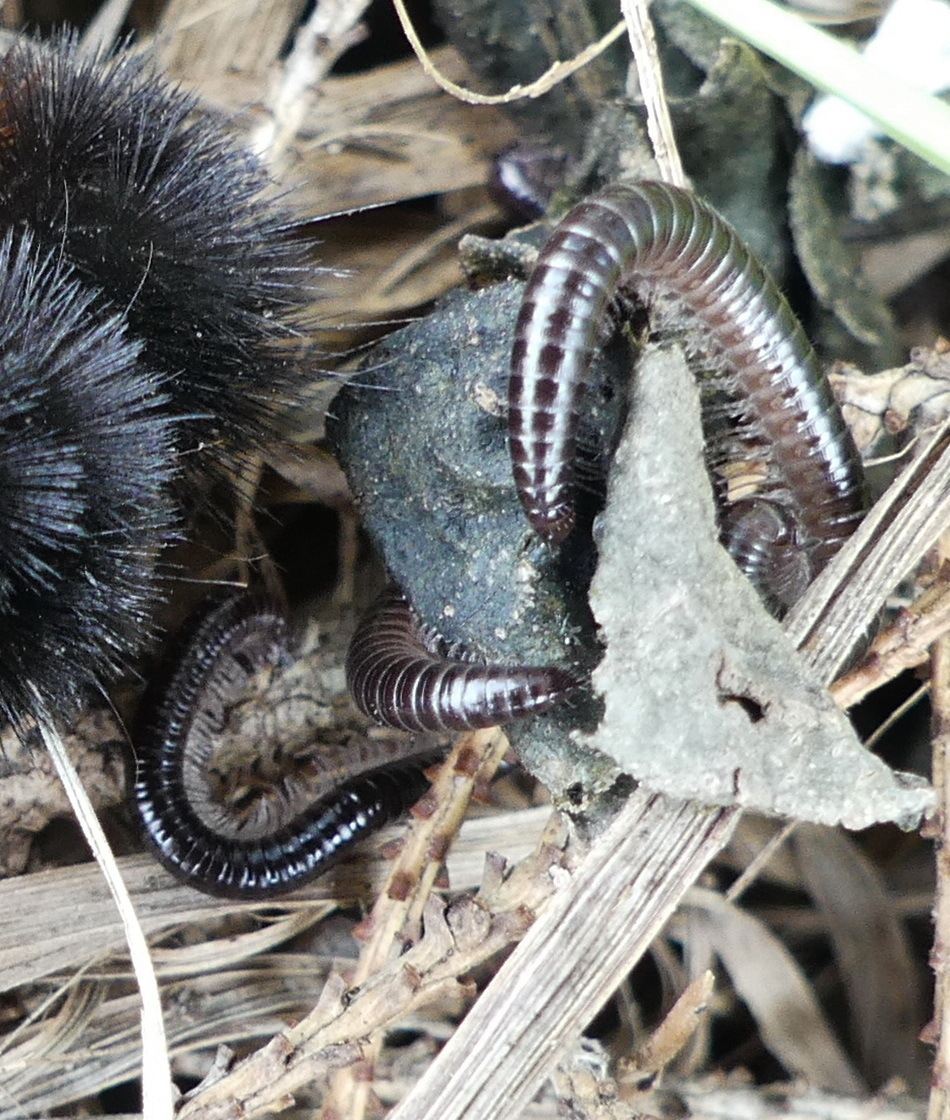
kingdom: Animalia
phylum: Arthropoda
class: Diplopoda
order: Julida
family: Parajulidae
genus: Ptyoiulus
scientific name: Ptyoiulus impressus
